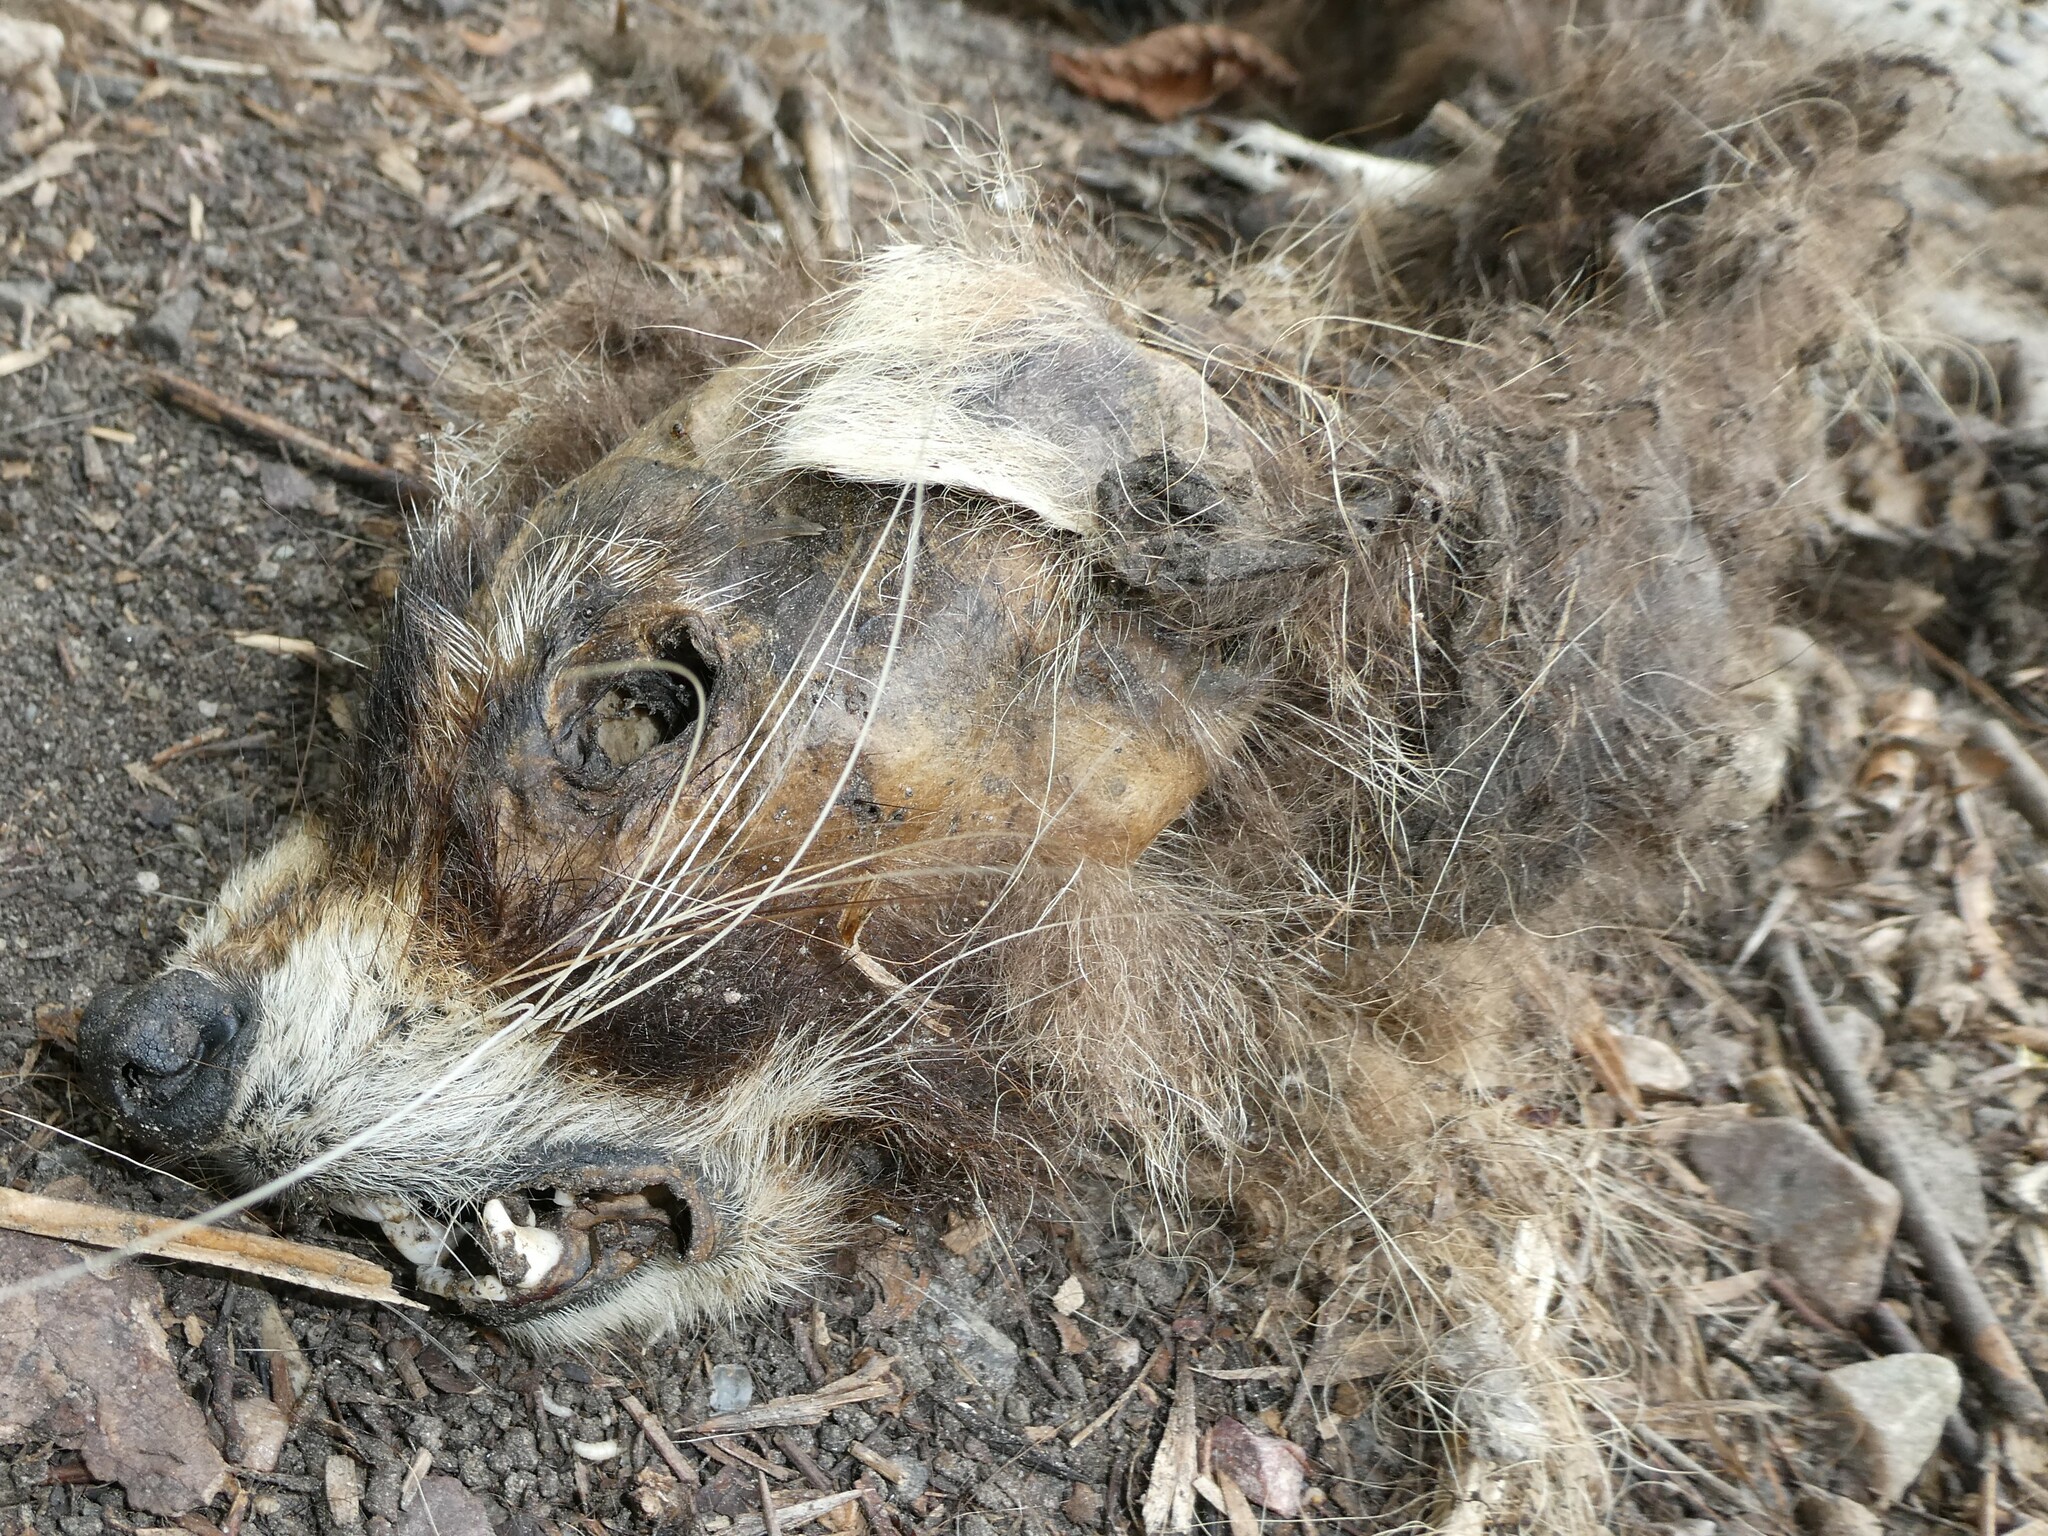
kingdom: Animalia
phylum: Chordata
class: Mammalia
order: Carnivora
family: Procyonidae
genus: Procyon
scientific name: Procyon lotor
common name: Raccoon
